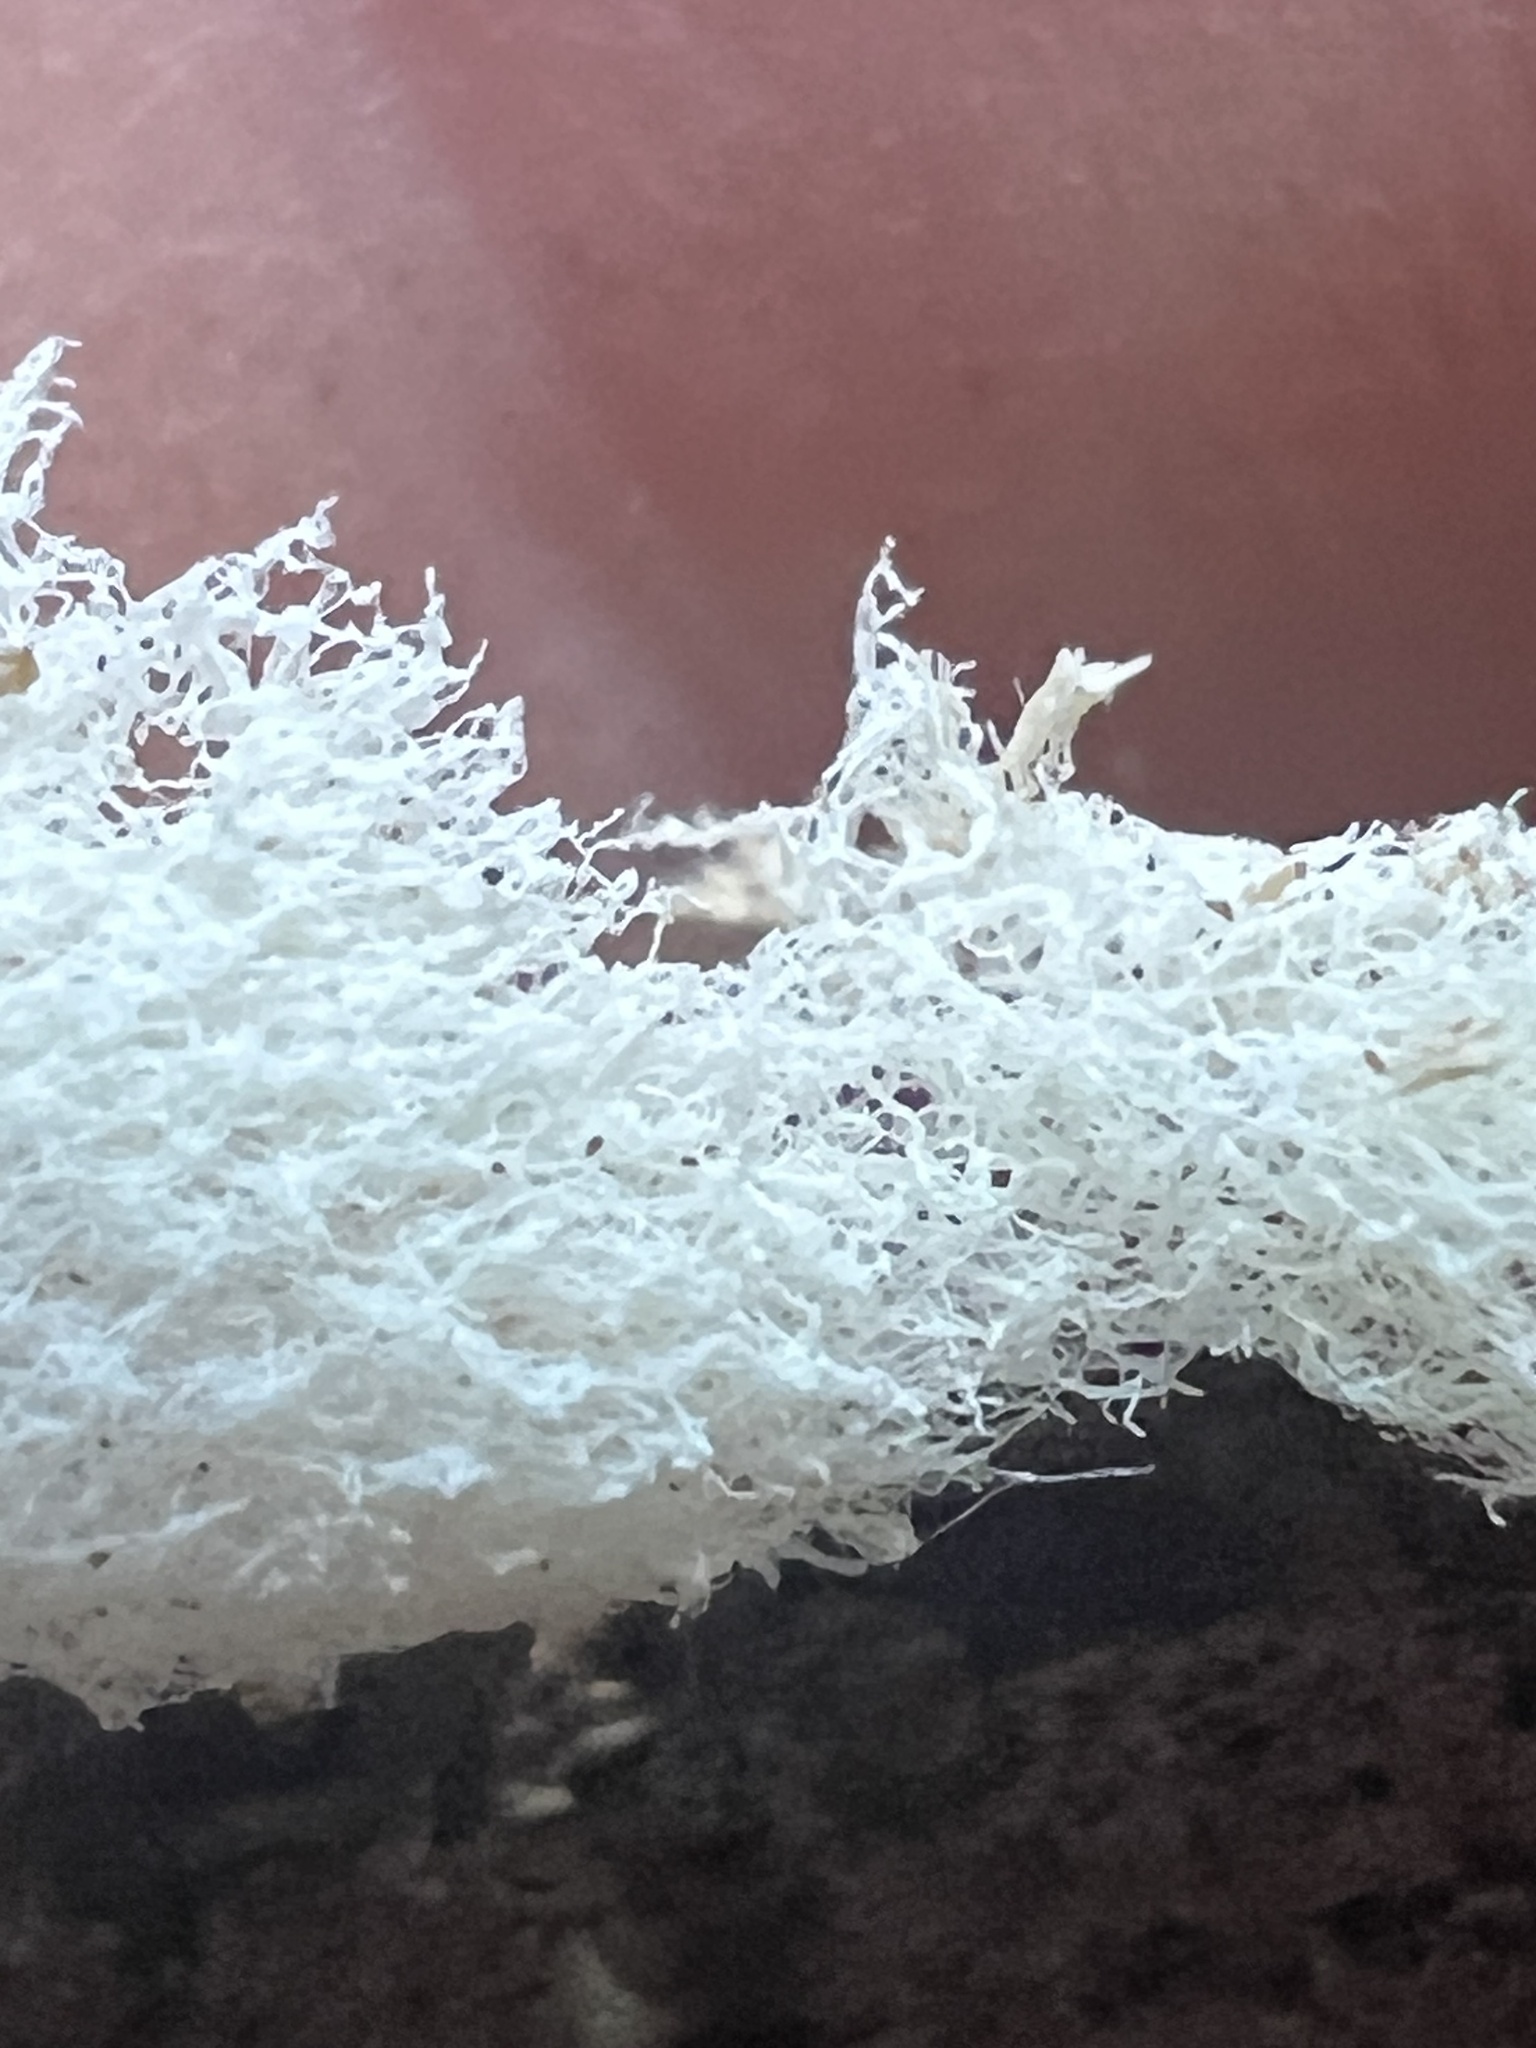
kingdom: Protozoa
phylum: Mycetozoa
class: Protosteliomycetes
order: Ceratiomyxales
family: Ceratiomyxaceae
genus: Ceratiomyxa
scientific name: Ceratiomyxa fruticulosa
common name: Honeycomb coral slime mold
